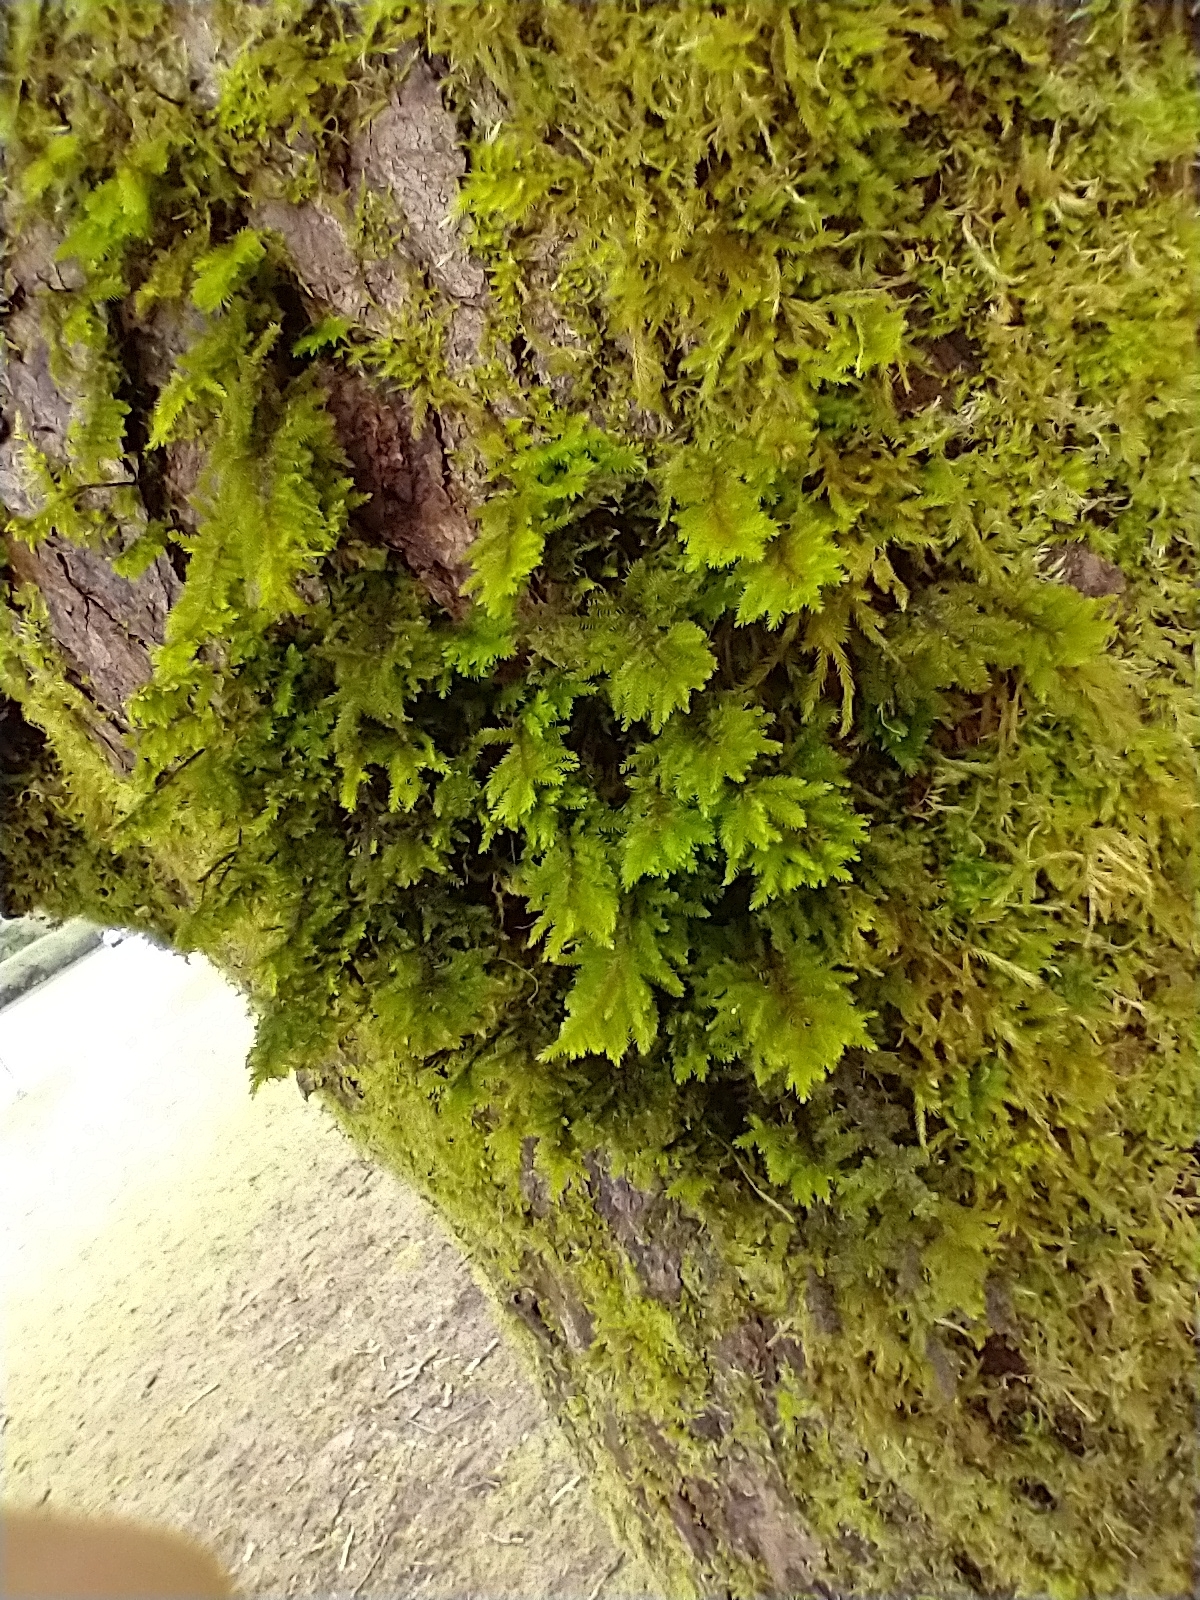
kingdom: Plantae
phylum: Bryophyta
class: Bryopsida
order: Hypnales
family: Cryphaeaceae
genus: Dendroalsia
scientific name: Dendroalsia abietina
